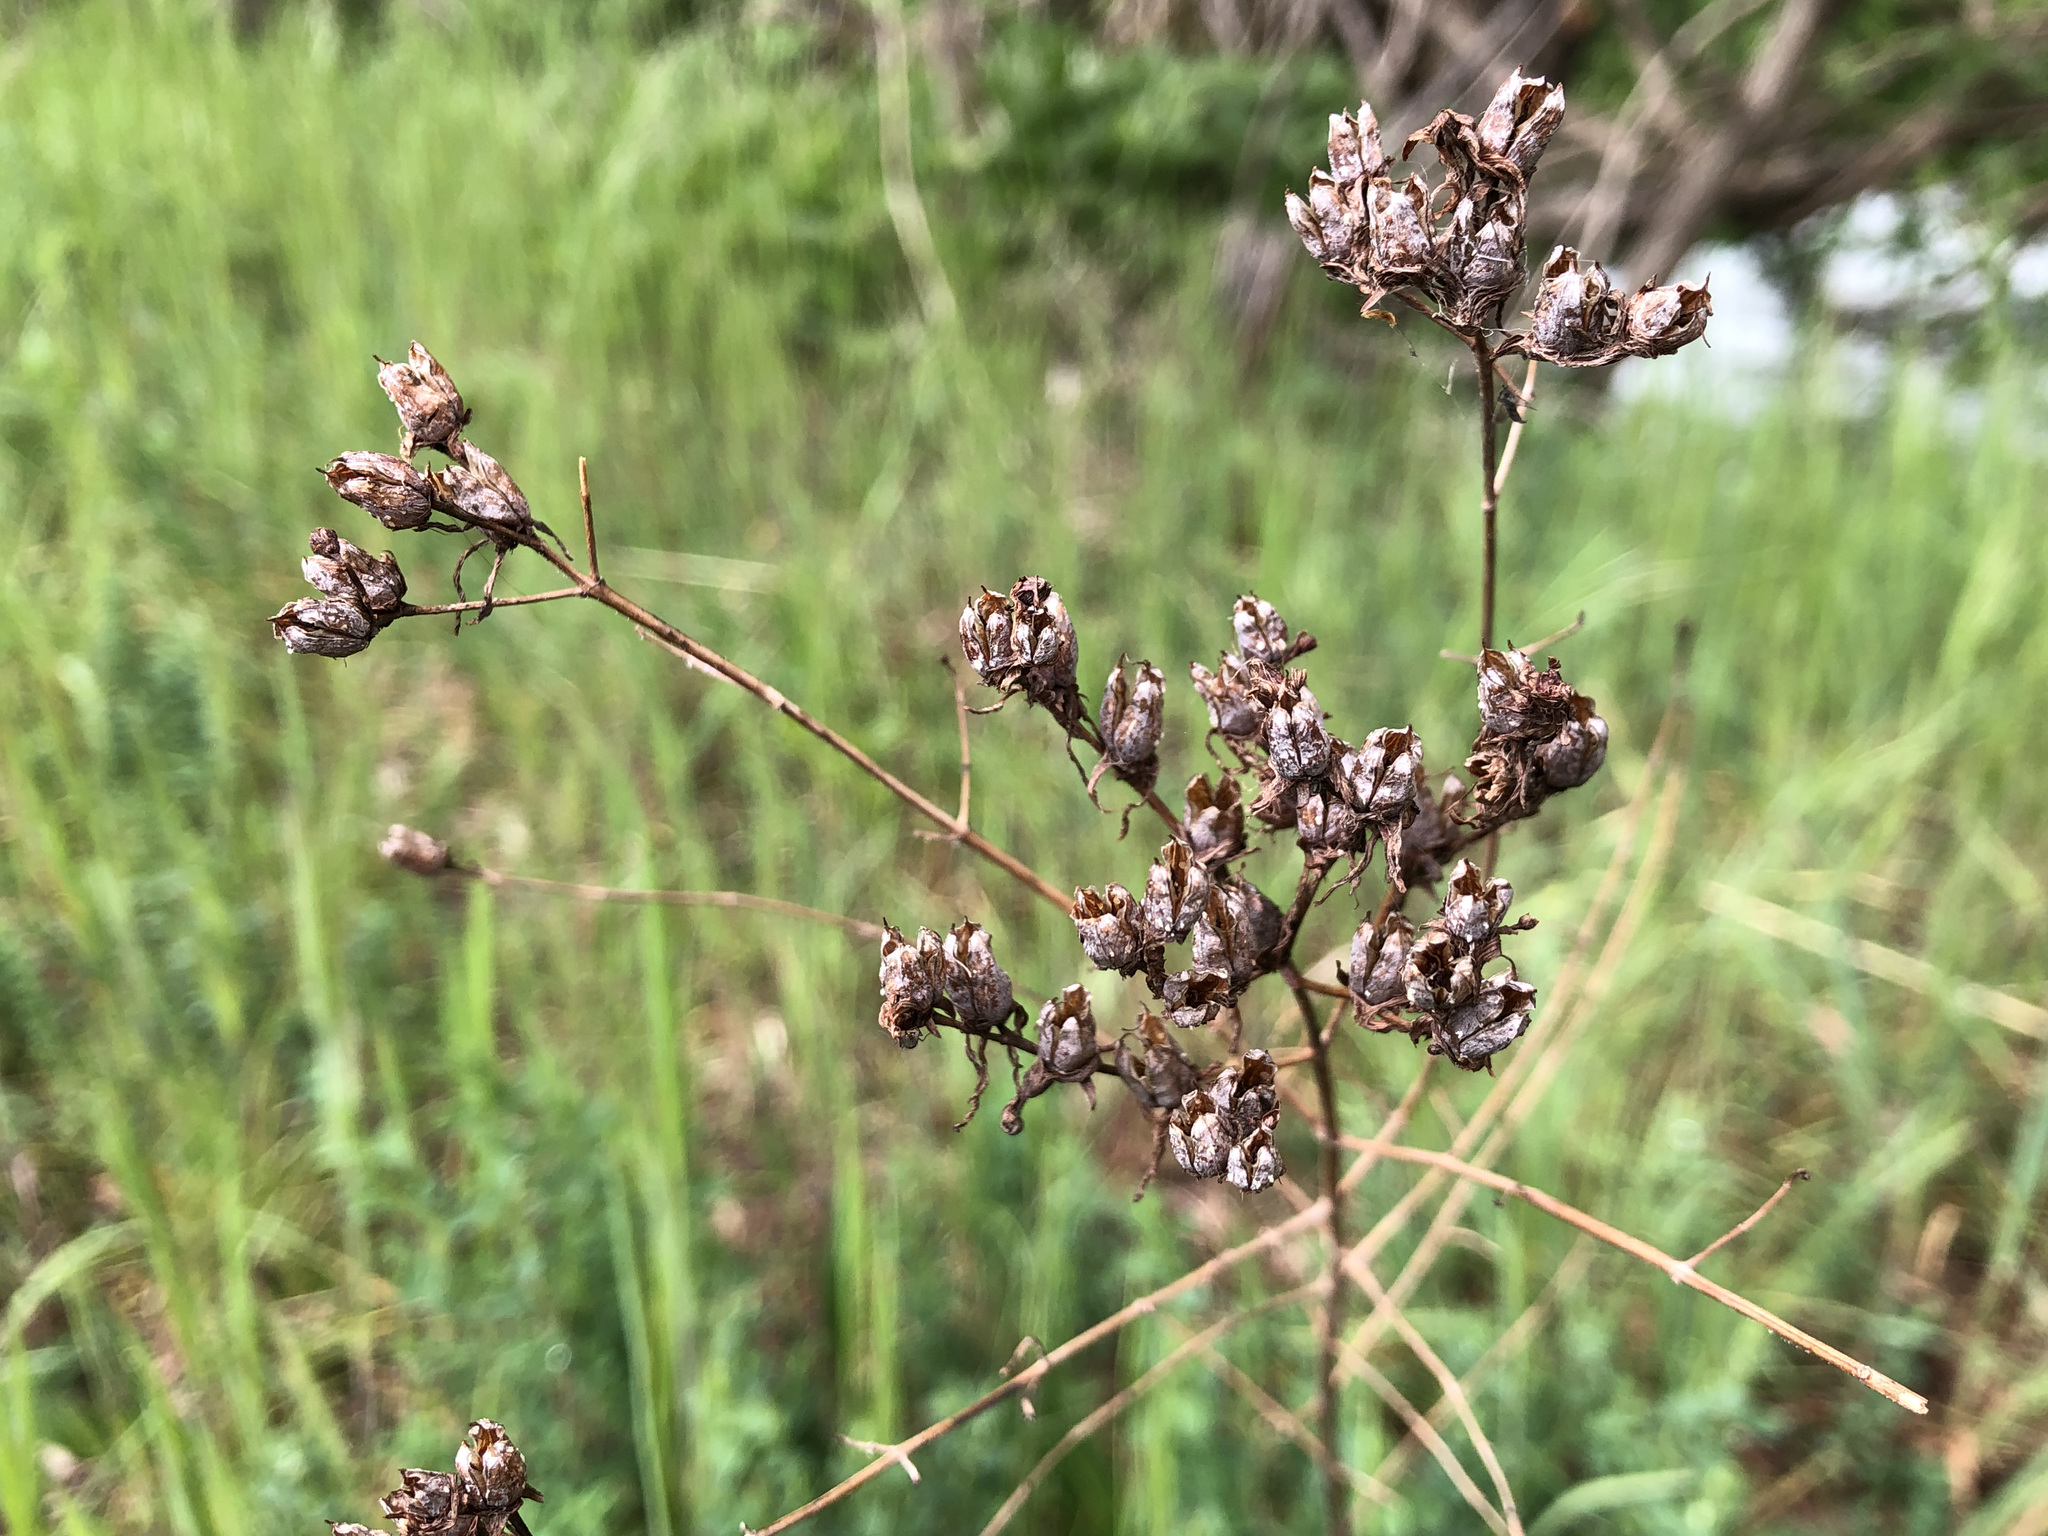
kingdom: Plantae
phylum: Tracheophyta
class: Magnoliopsida
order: Malpighiales
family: Hypericaceae
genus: Hypericum
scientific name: Hypericum perforatum
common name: Common st. johnswort
